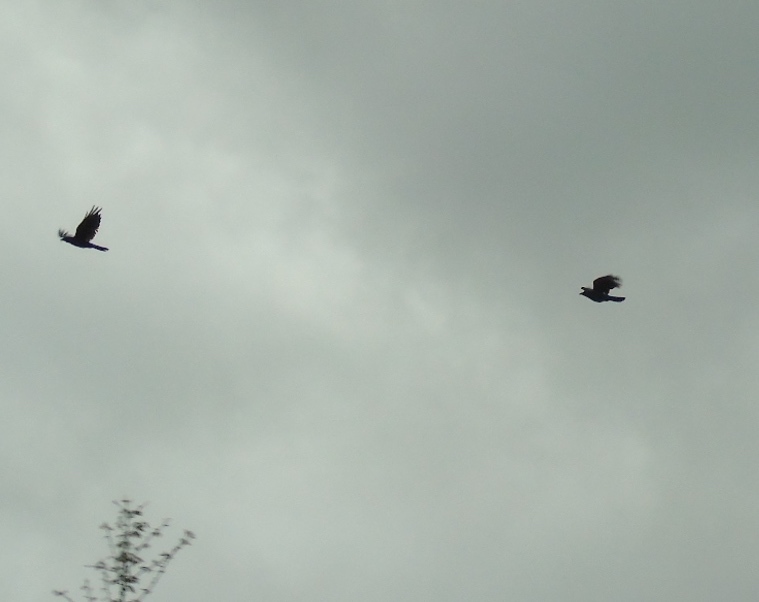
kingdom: Animalia
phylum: Chordata
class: Aves
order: Passeriformes
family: Corvidae
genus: Corvus
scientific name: Corvus sinaloae
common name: Sinaloa crow
